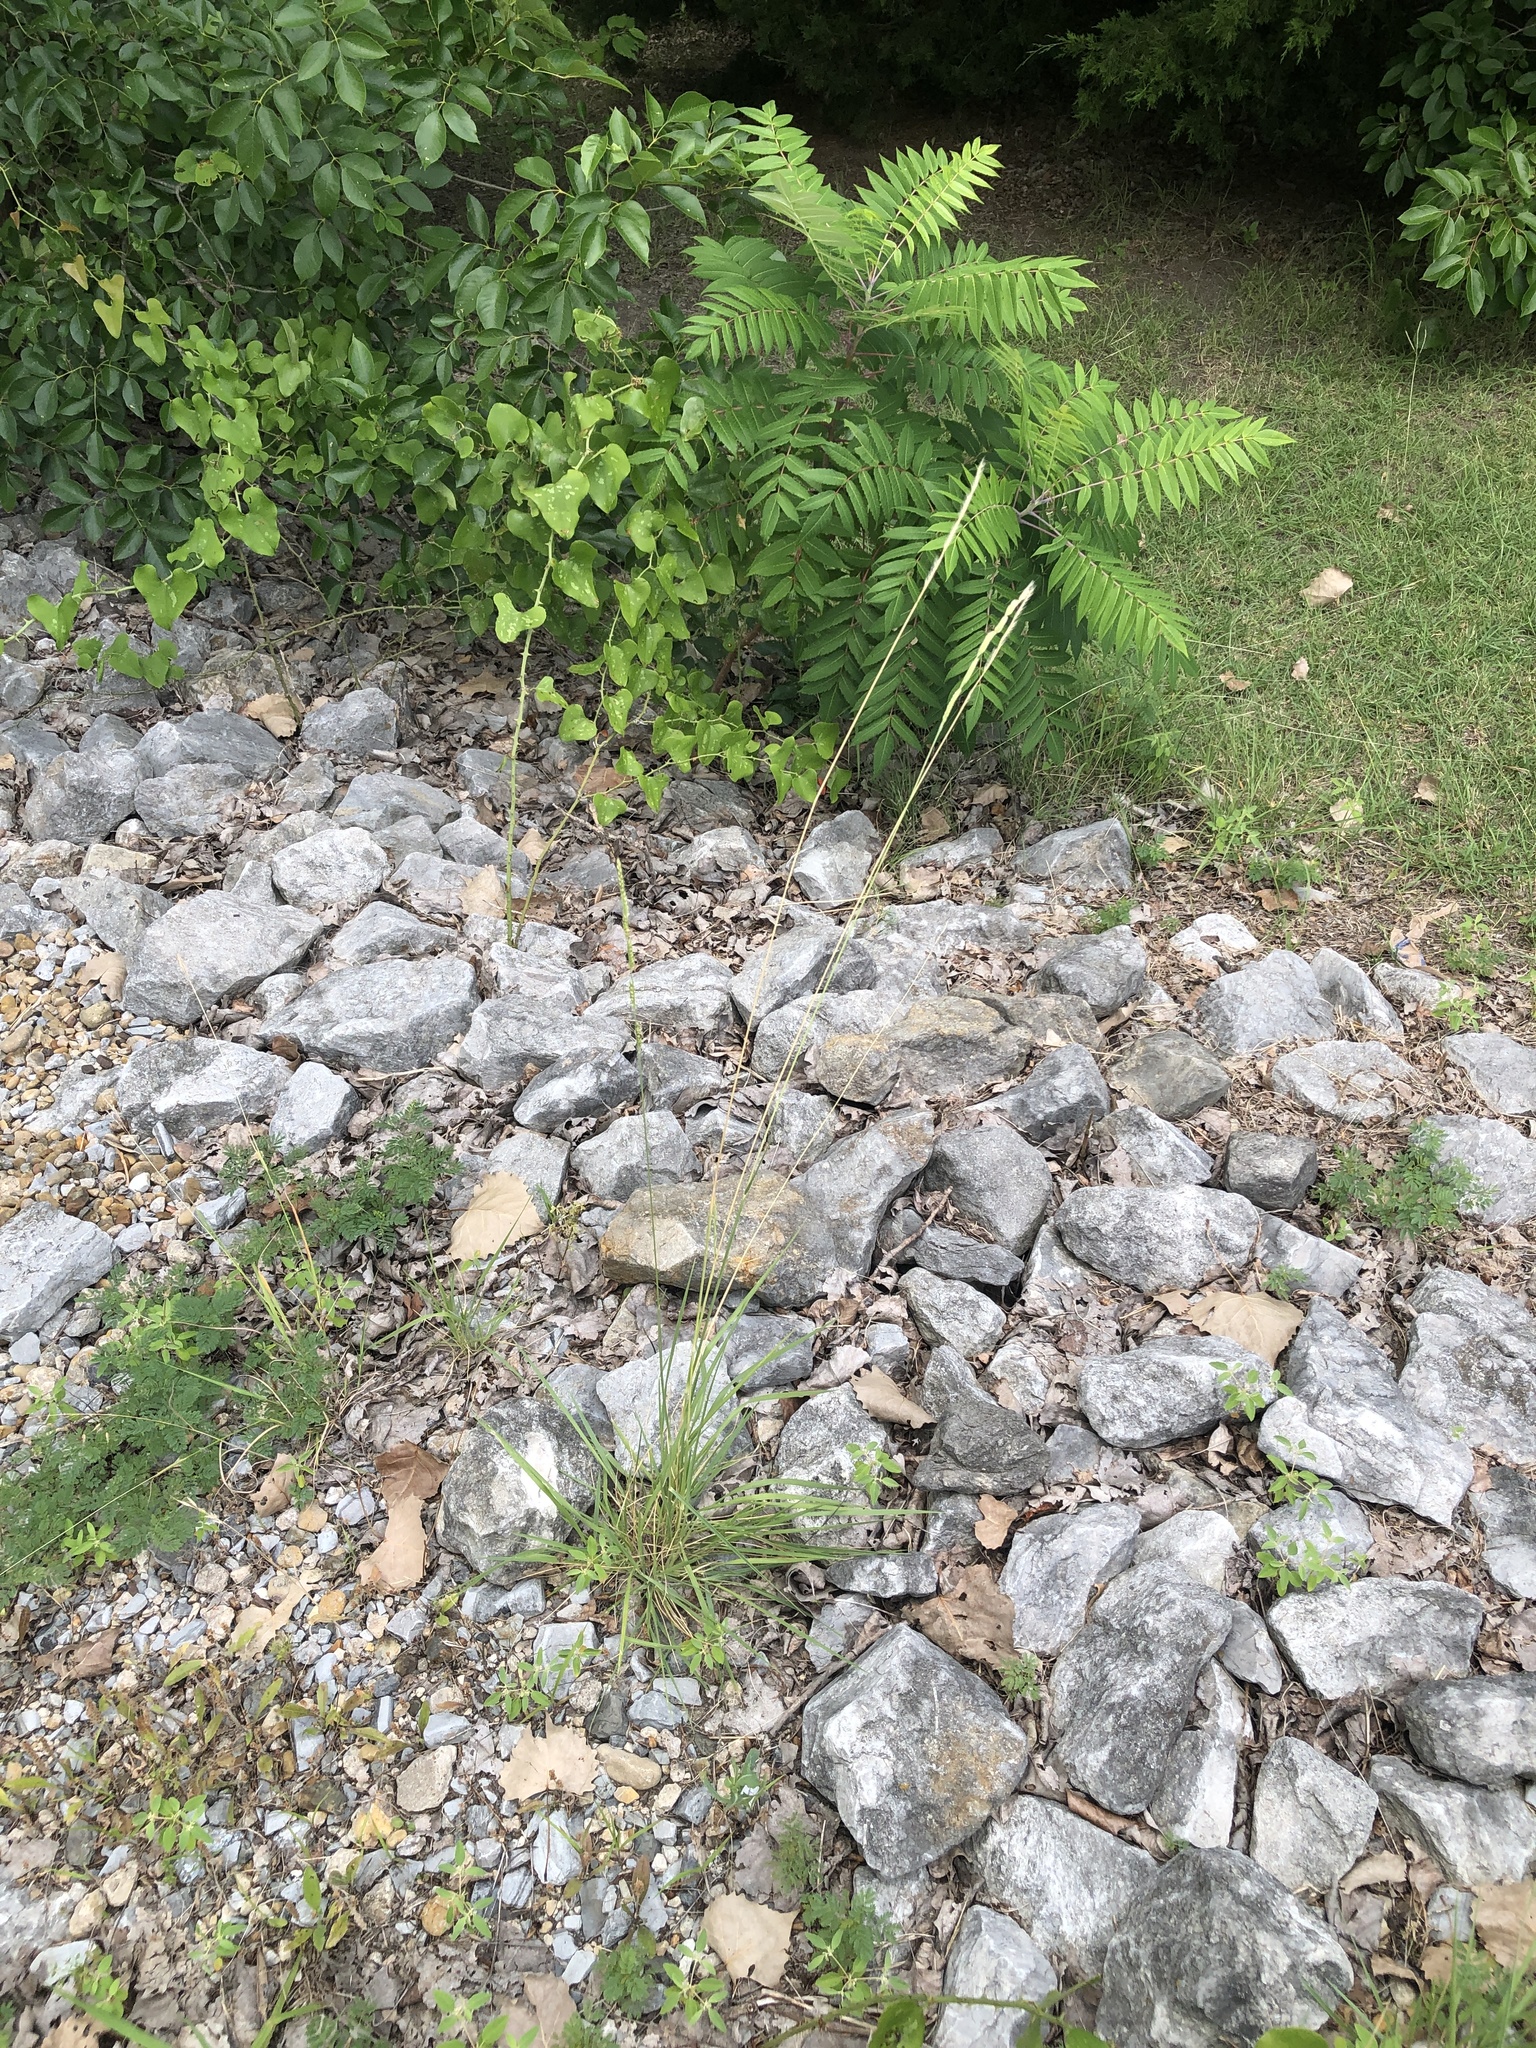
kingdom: Plantae
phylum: Tracheophyta
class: Liliopsida
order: Poales
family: Poaceae
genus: Eriochloa
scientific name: Eriochloa sericea
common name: Texas cup grass
